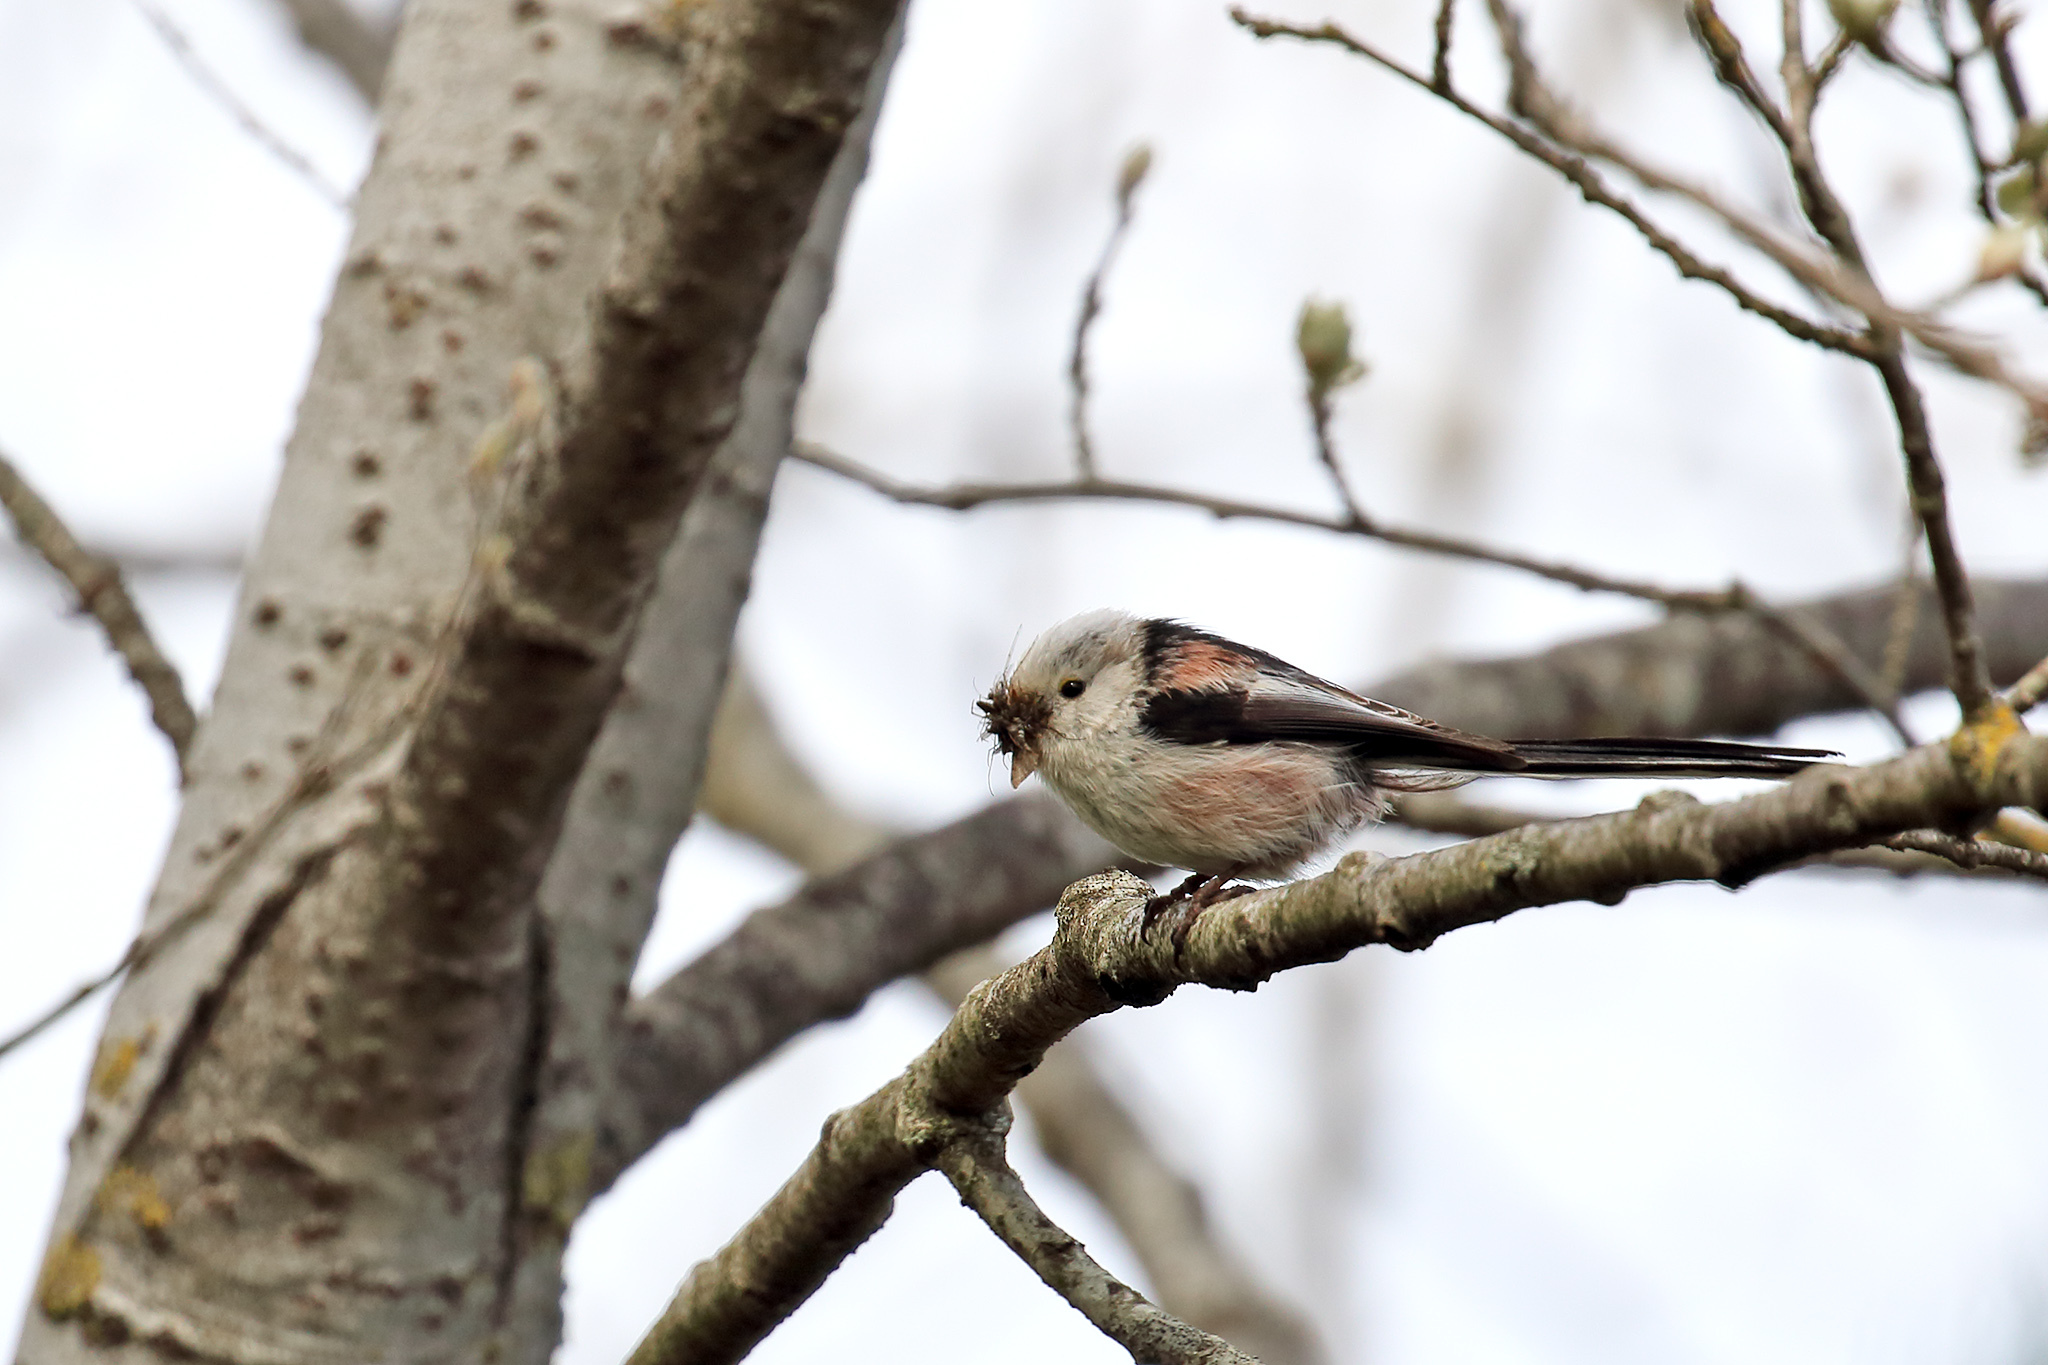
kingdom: Animalia
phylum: Chordata
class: Aves
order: Passeriformes
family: Aegithalidae
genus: Aegithalos
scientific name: Aegithalos caudatus
